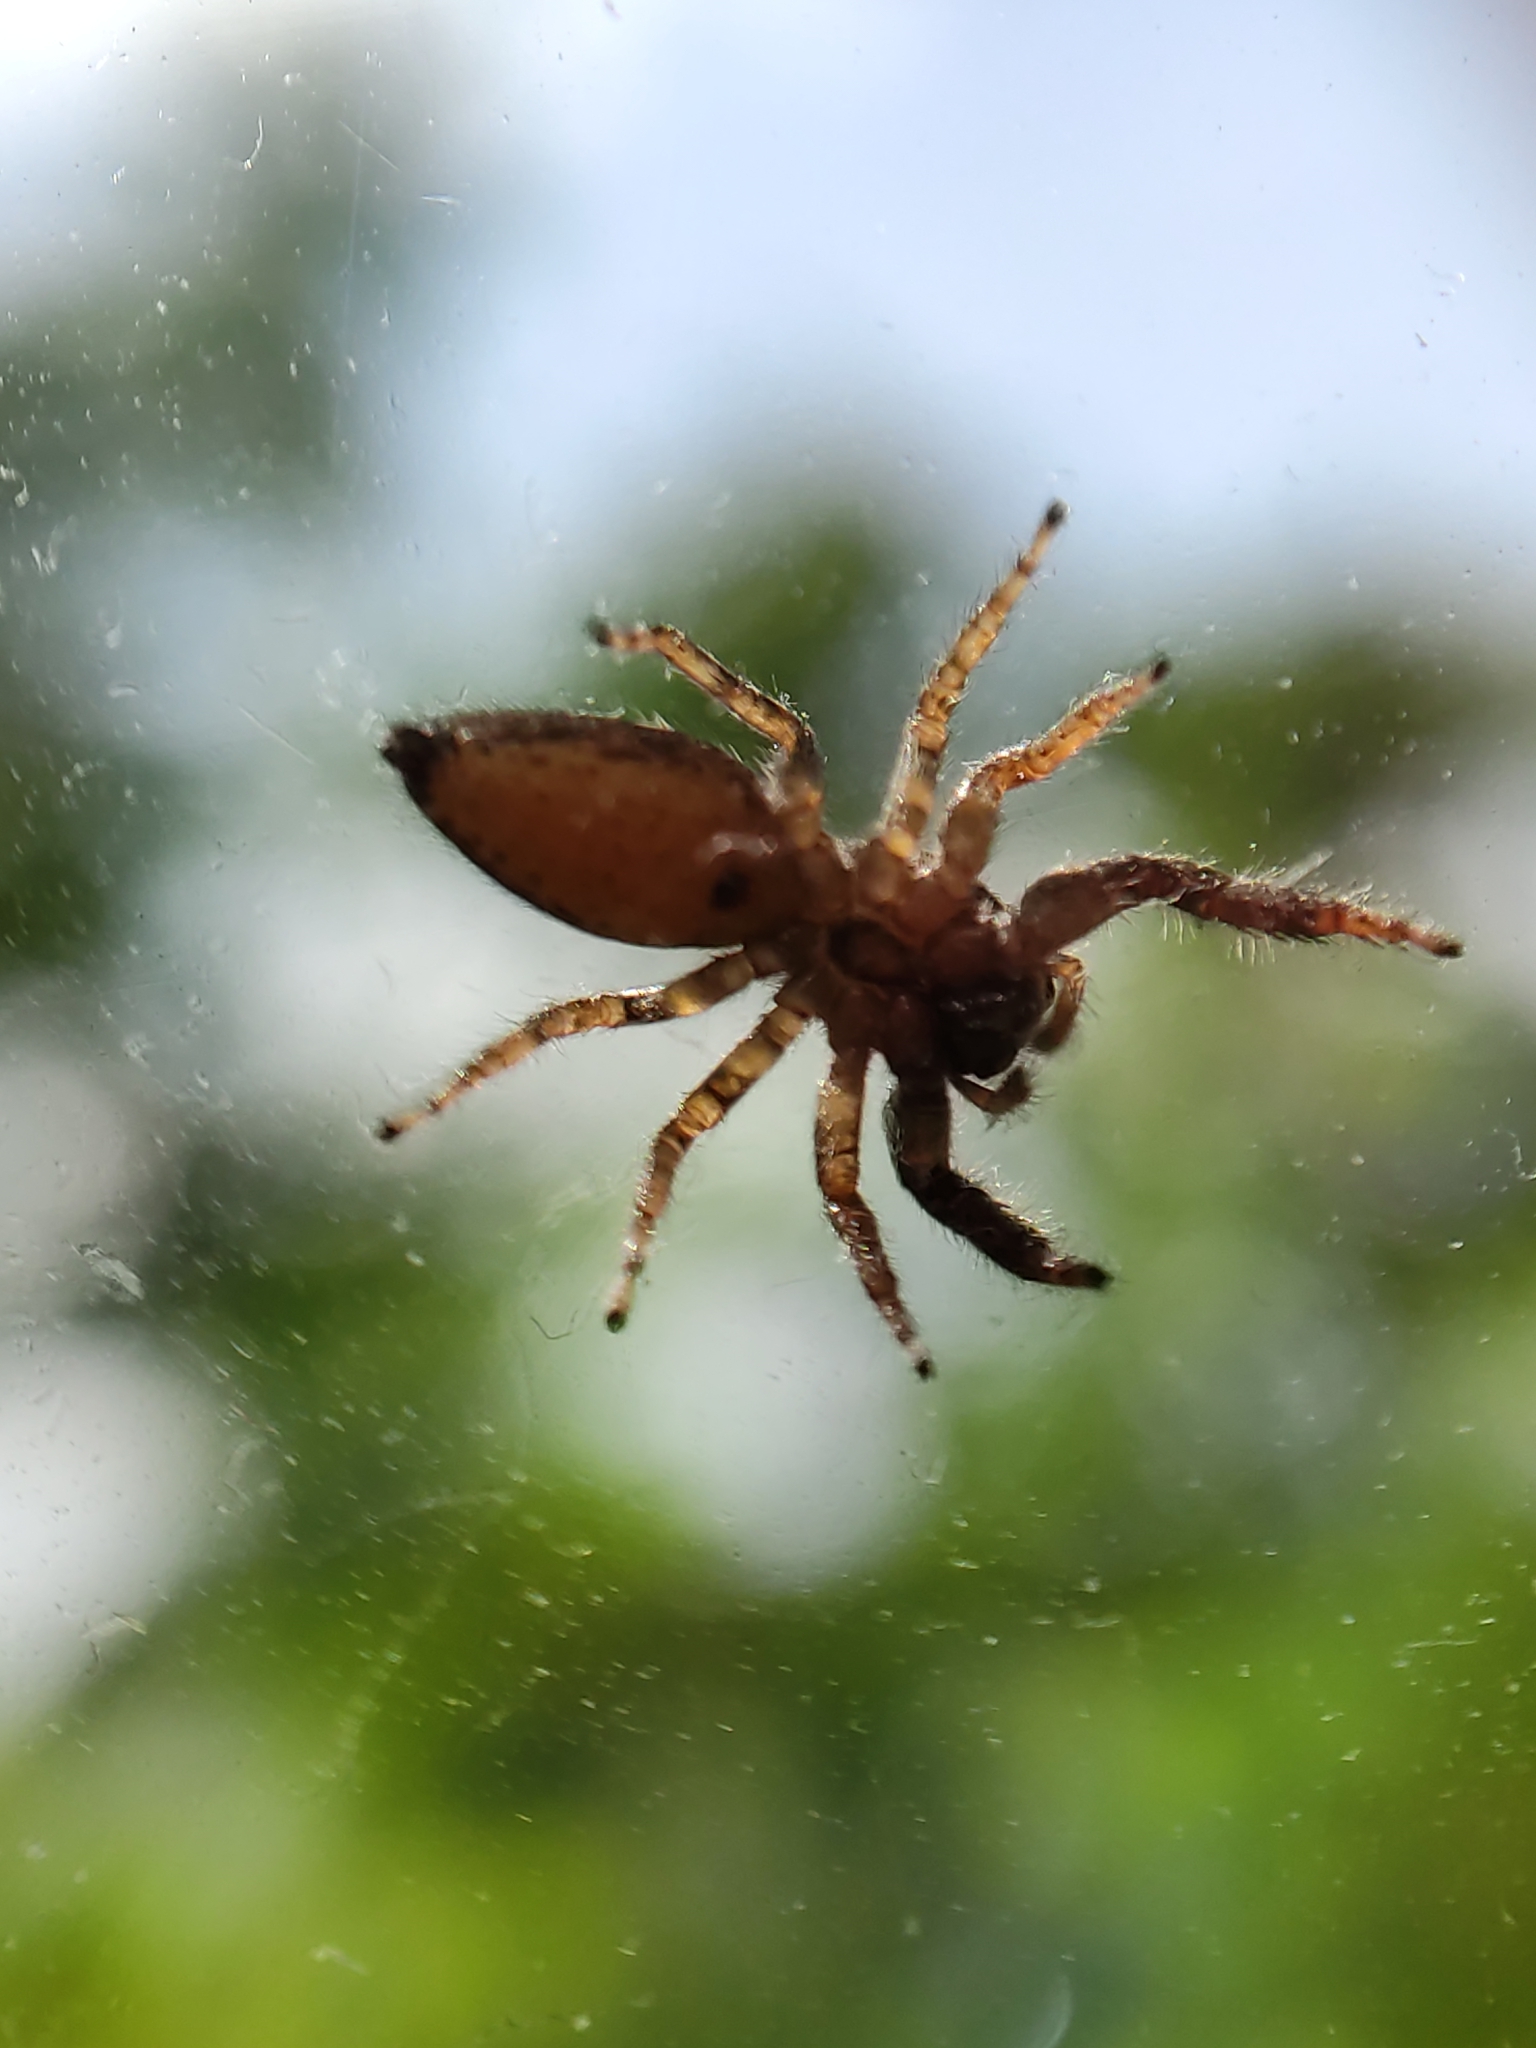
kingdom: Animalia
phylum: Arthropoda
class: Arachnida
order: Araneae
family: Salticidae
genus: Marpissa
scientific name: Marpissa muscosa
